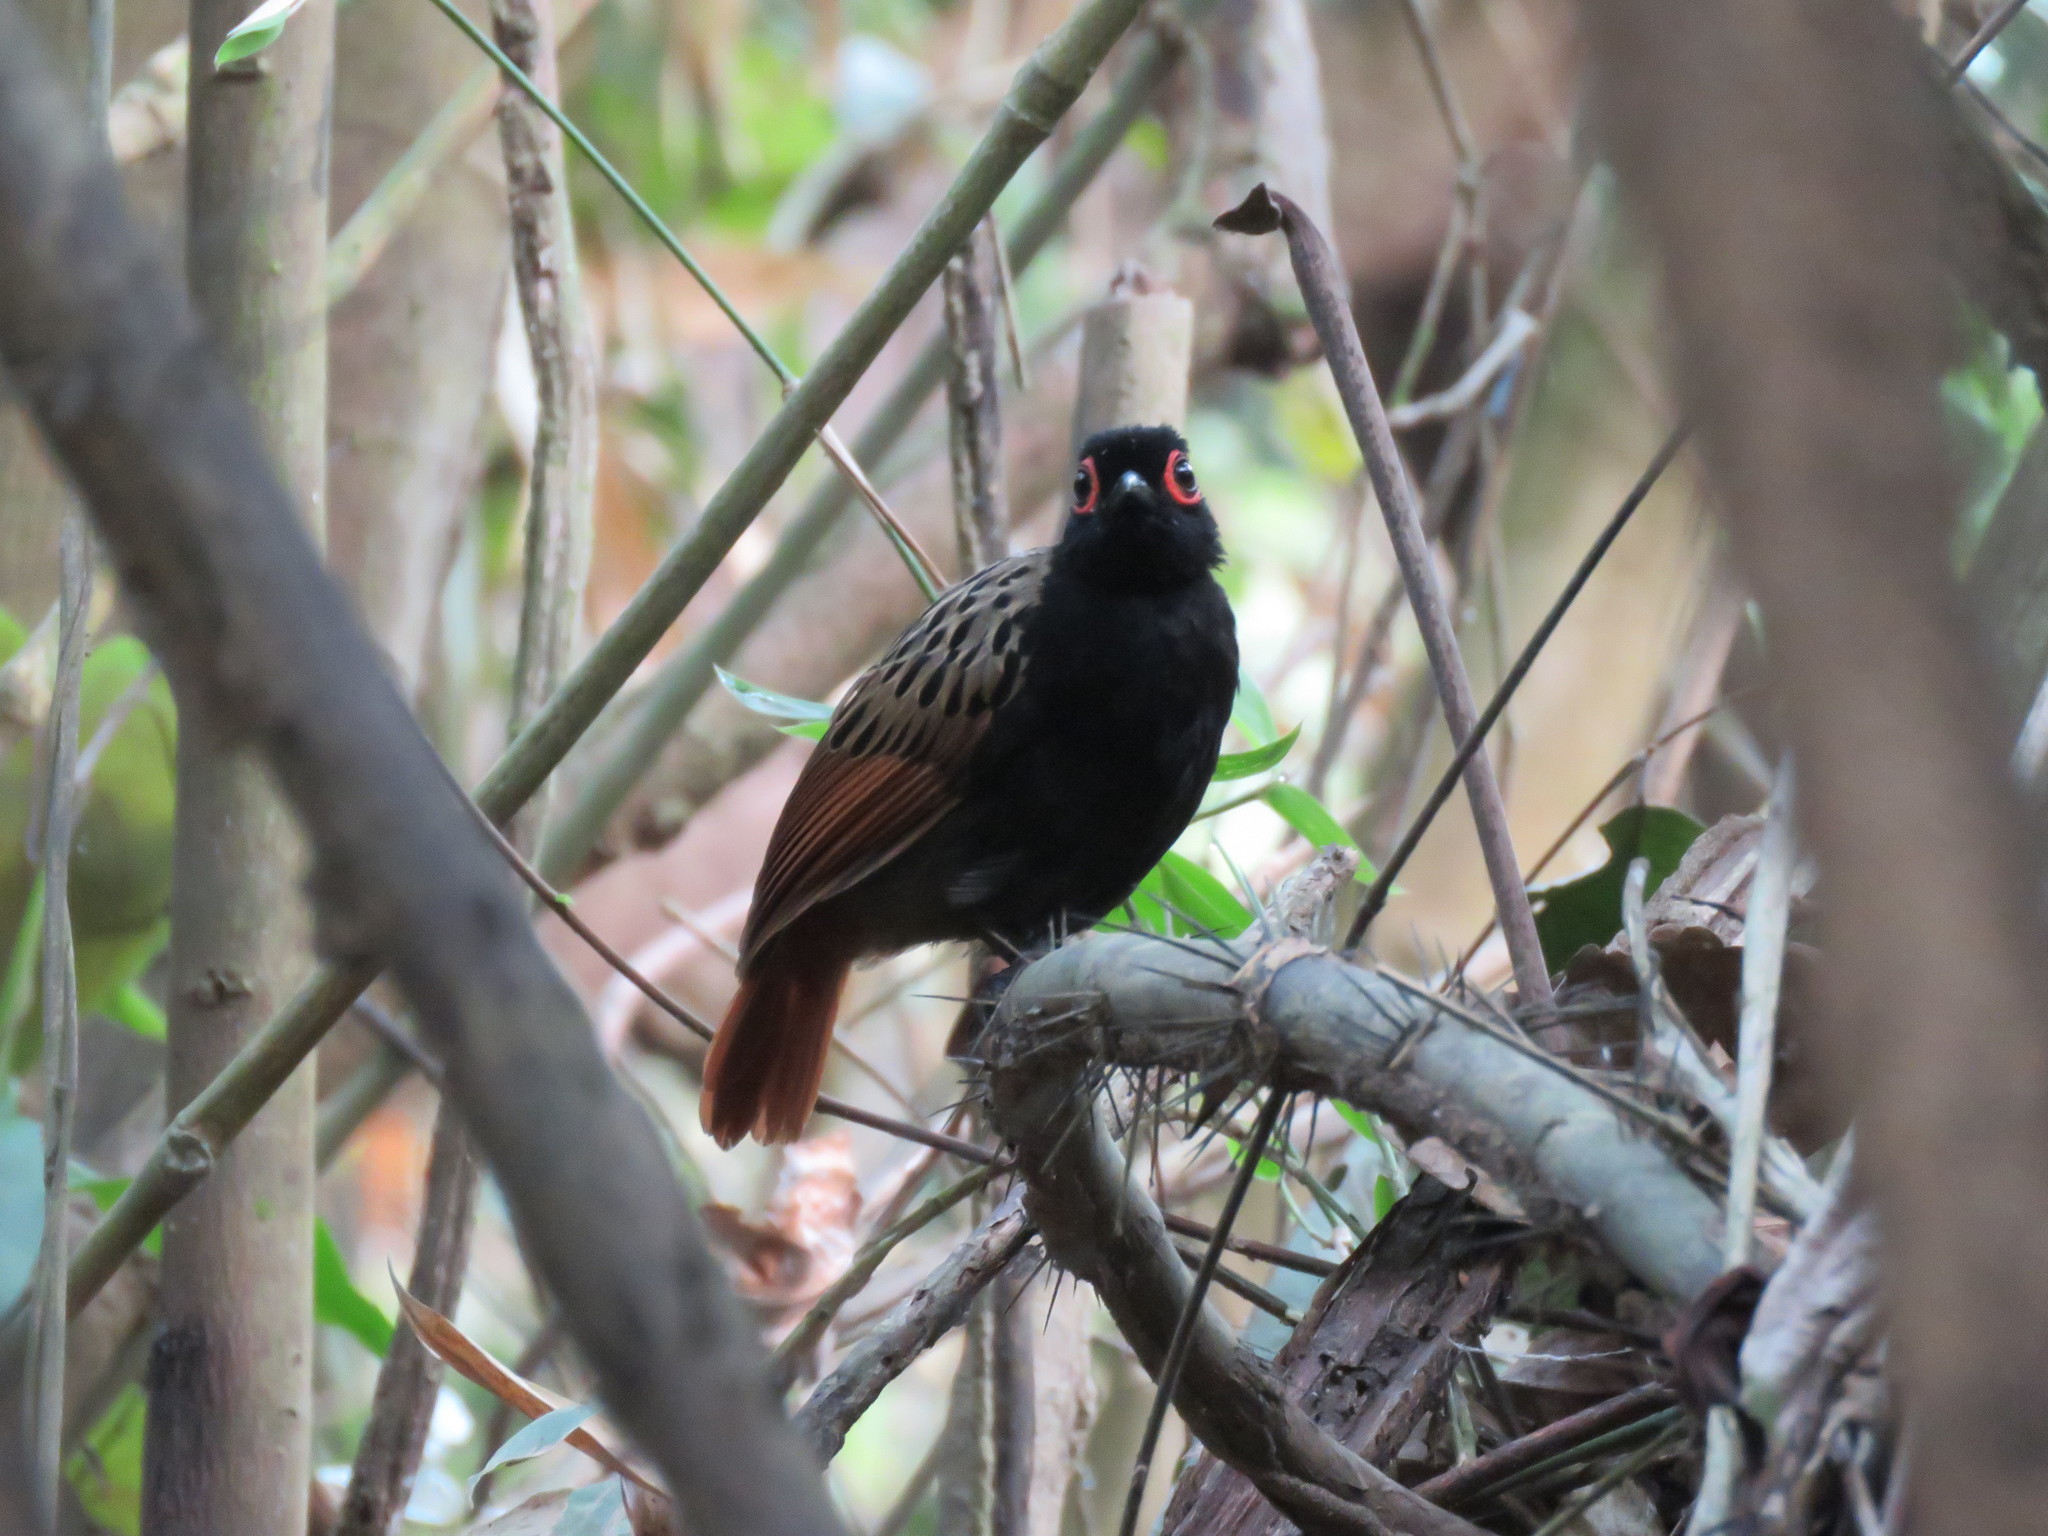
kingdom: Animalia
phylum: Chordata
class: Aves
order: Passeriformes
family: Thamnophilidae
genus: Phlegopsis
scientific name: Phlegopsis nigromaculata
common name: Black-spotted bare-eye
